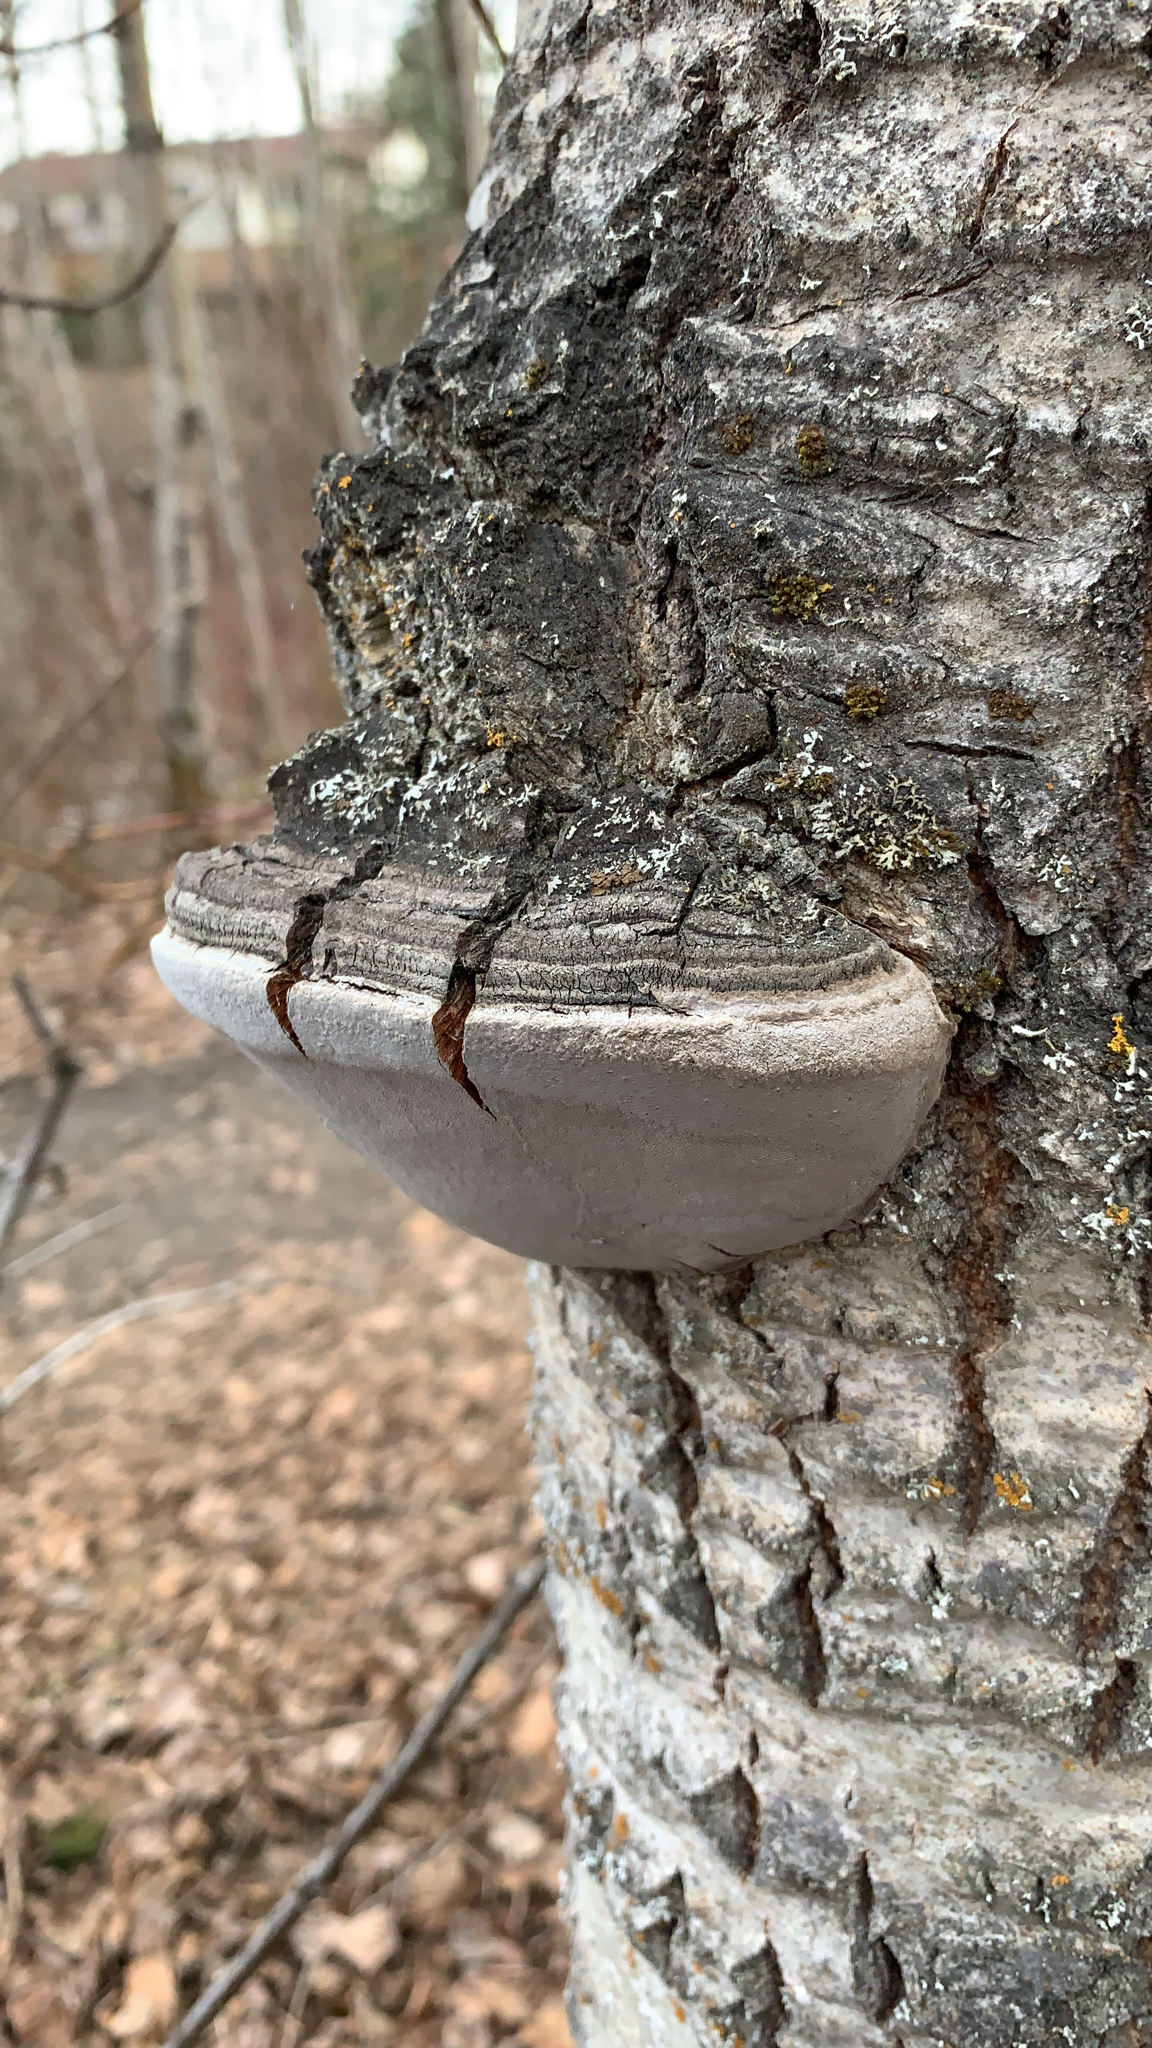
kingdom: Fungi
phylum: Basidiomycota
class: Agaricomycetes
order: Hymenochaetales
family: Hymenochaetaceae
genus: Phellinus
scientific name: Phellinus tremulae
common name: Aspen bracket
